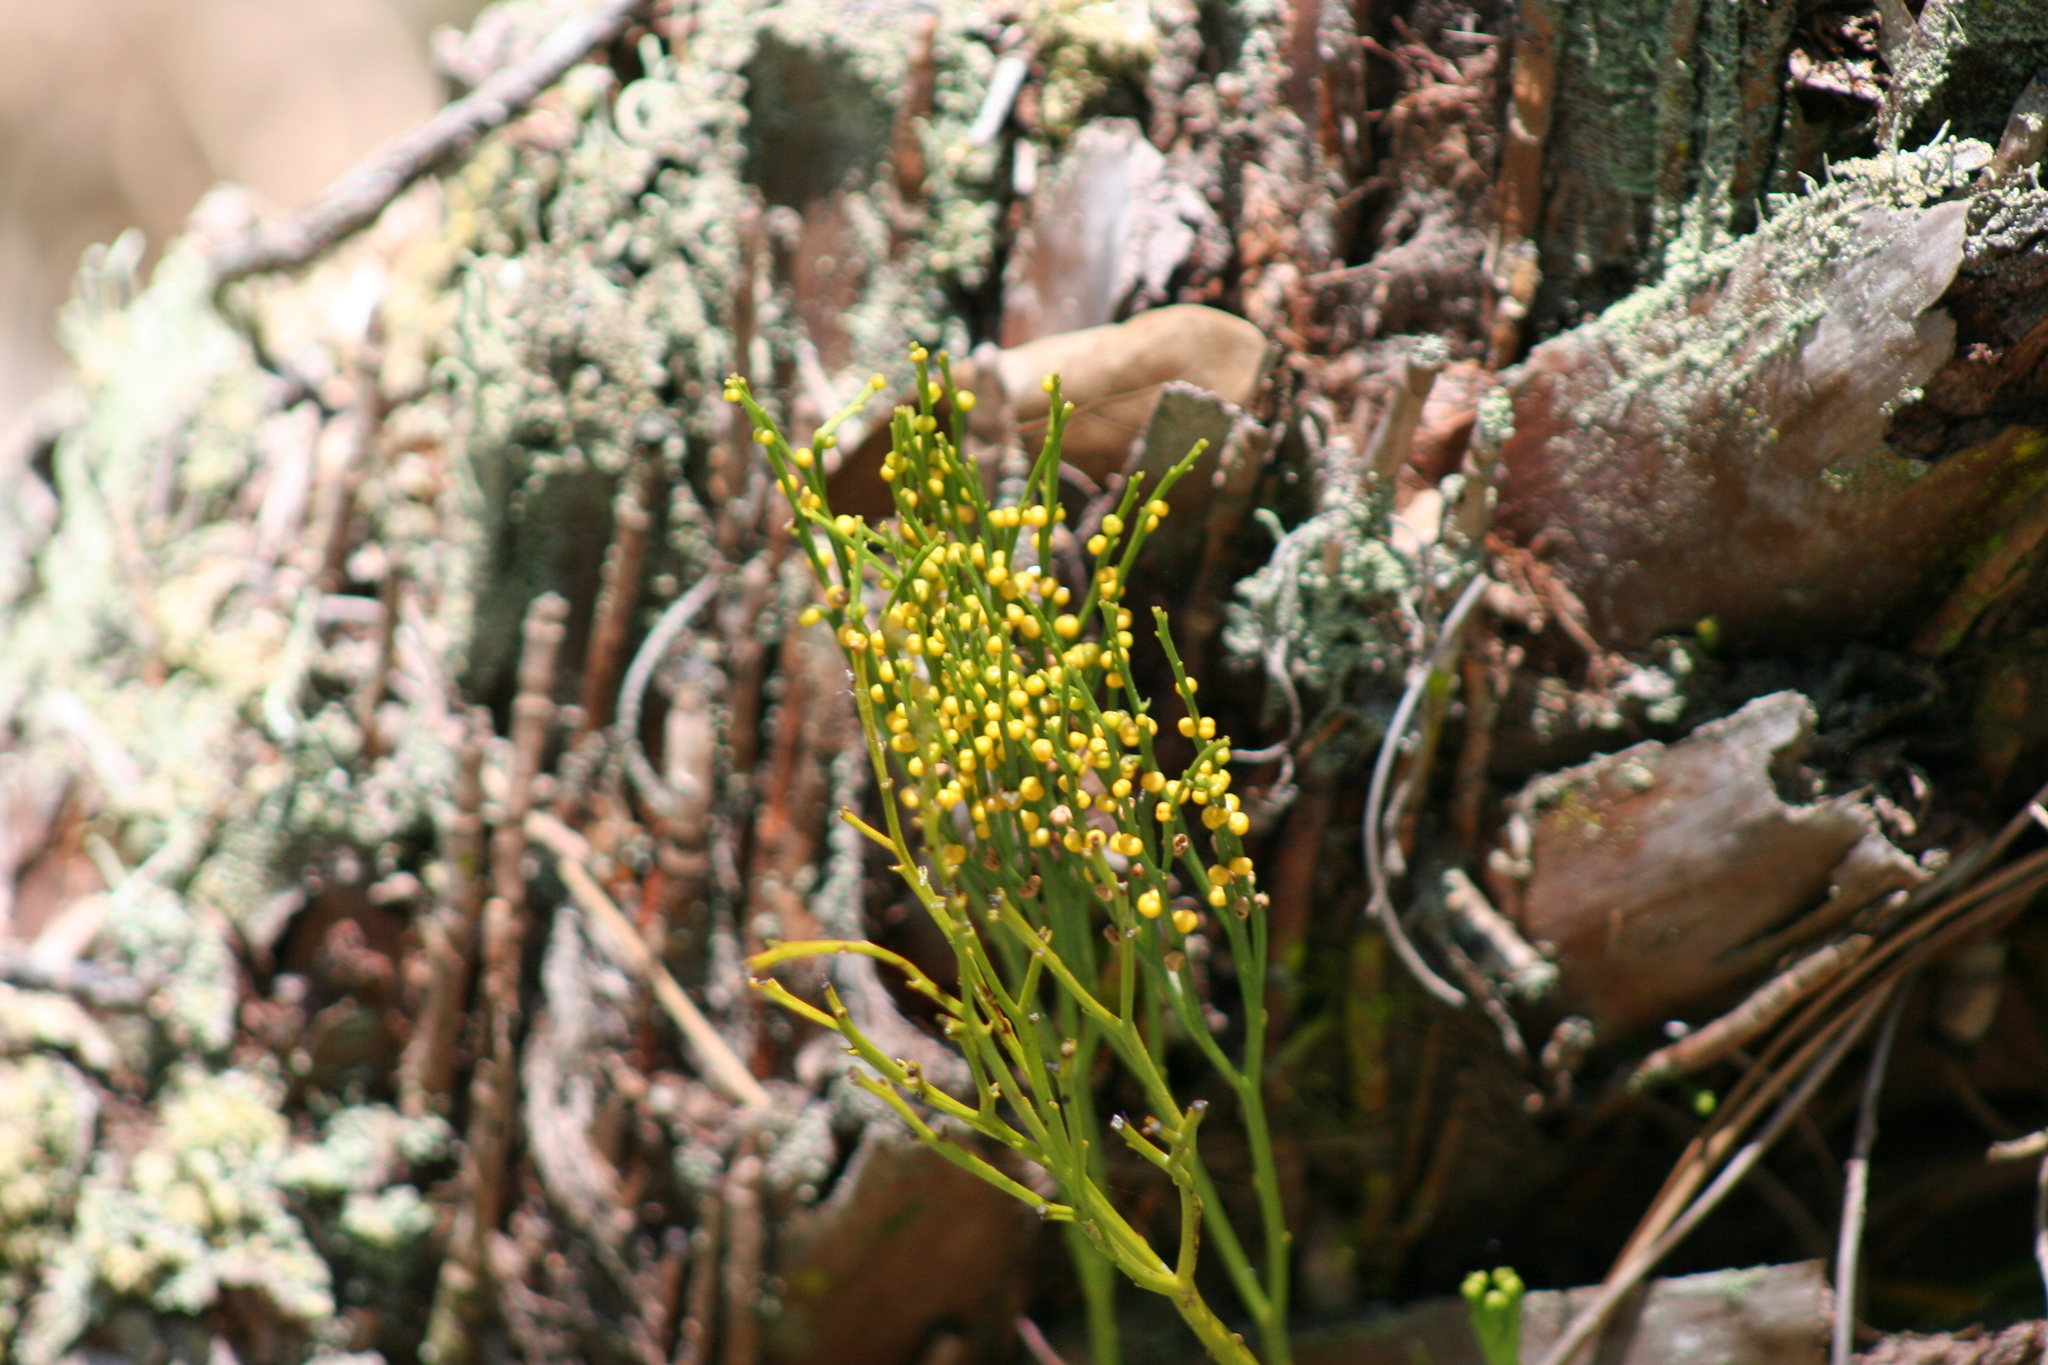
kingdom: Plantae
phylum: Tracheophyta
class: Polypodiopsida
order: Psilotales
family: Psilotaceae
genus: Psilotum
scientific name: Psilotum nudum
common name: Skeleton fork fern
